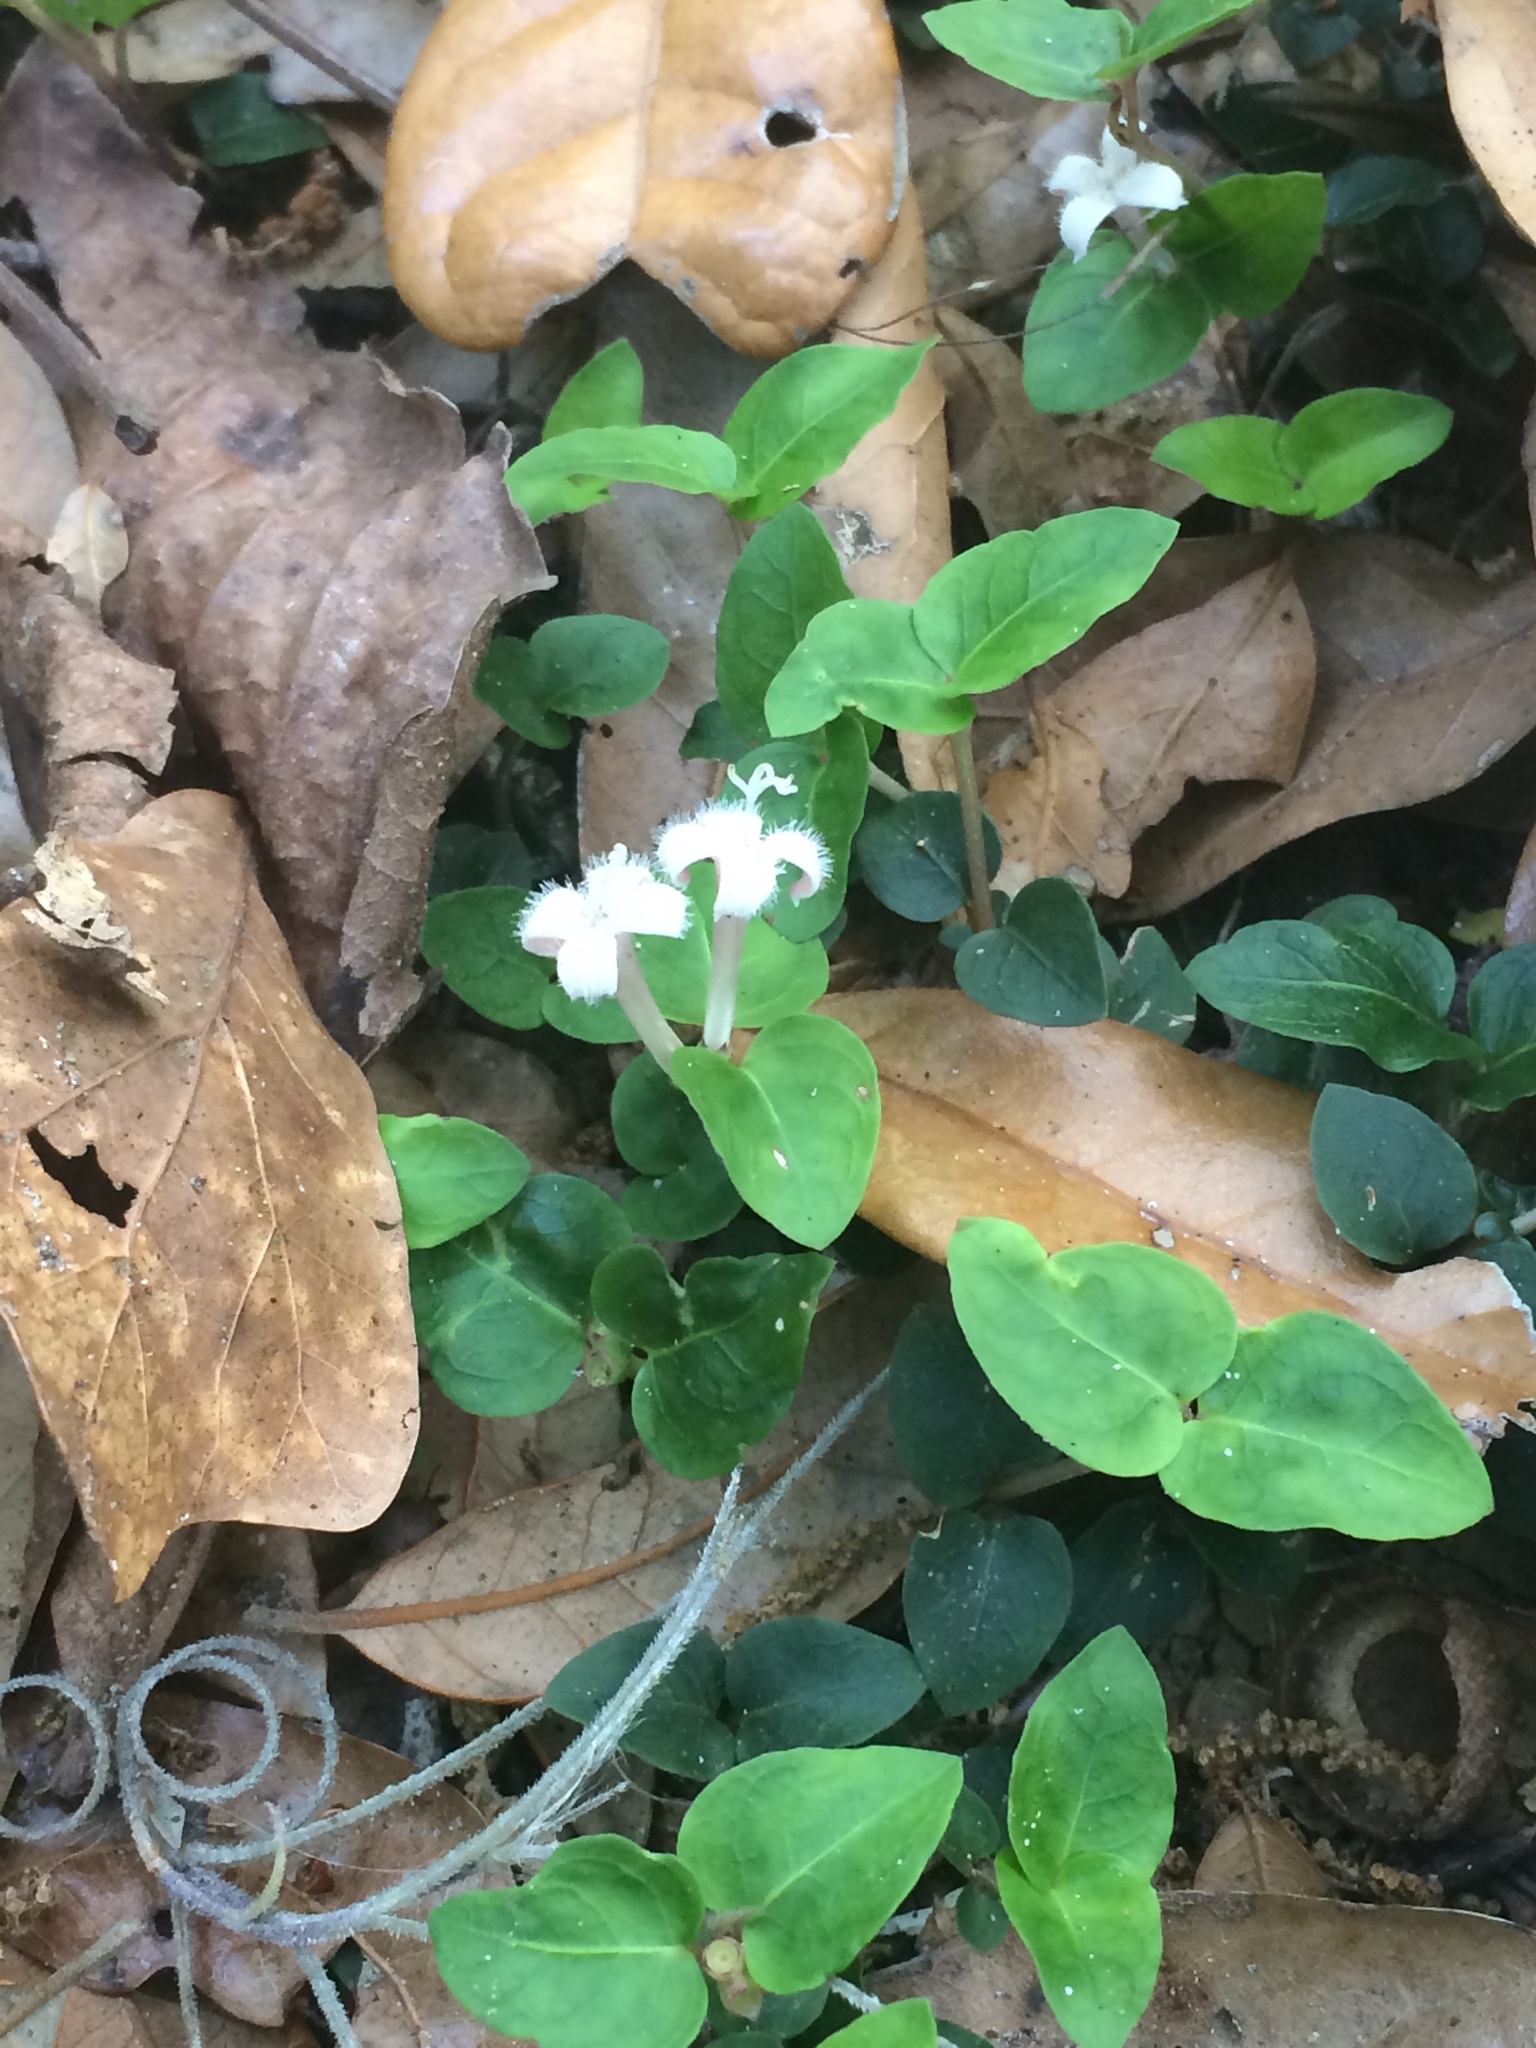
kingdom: Plantae
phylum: Tracheophyta
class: Magnoliopsida
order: Gentianales
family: Rubiaceae
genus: Mitchella
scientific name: Mitchella repens
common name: Partridge-berry
